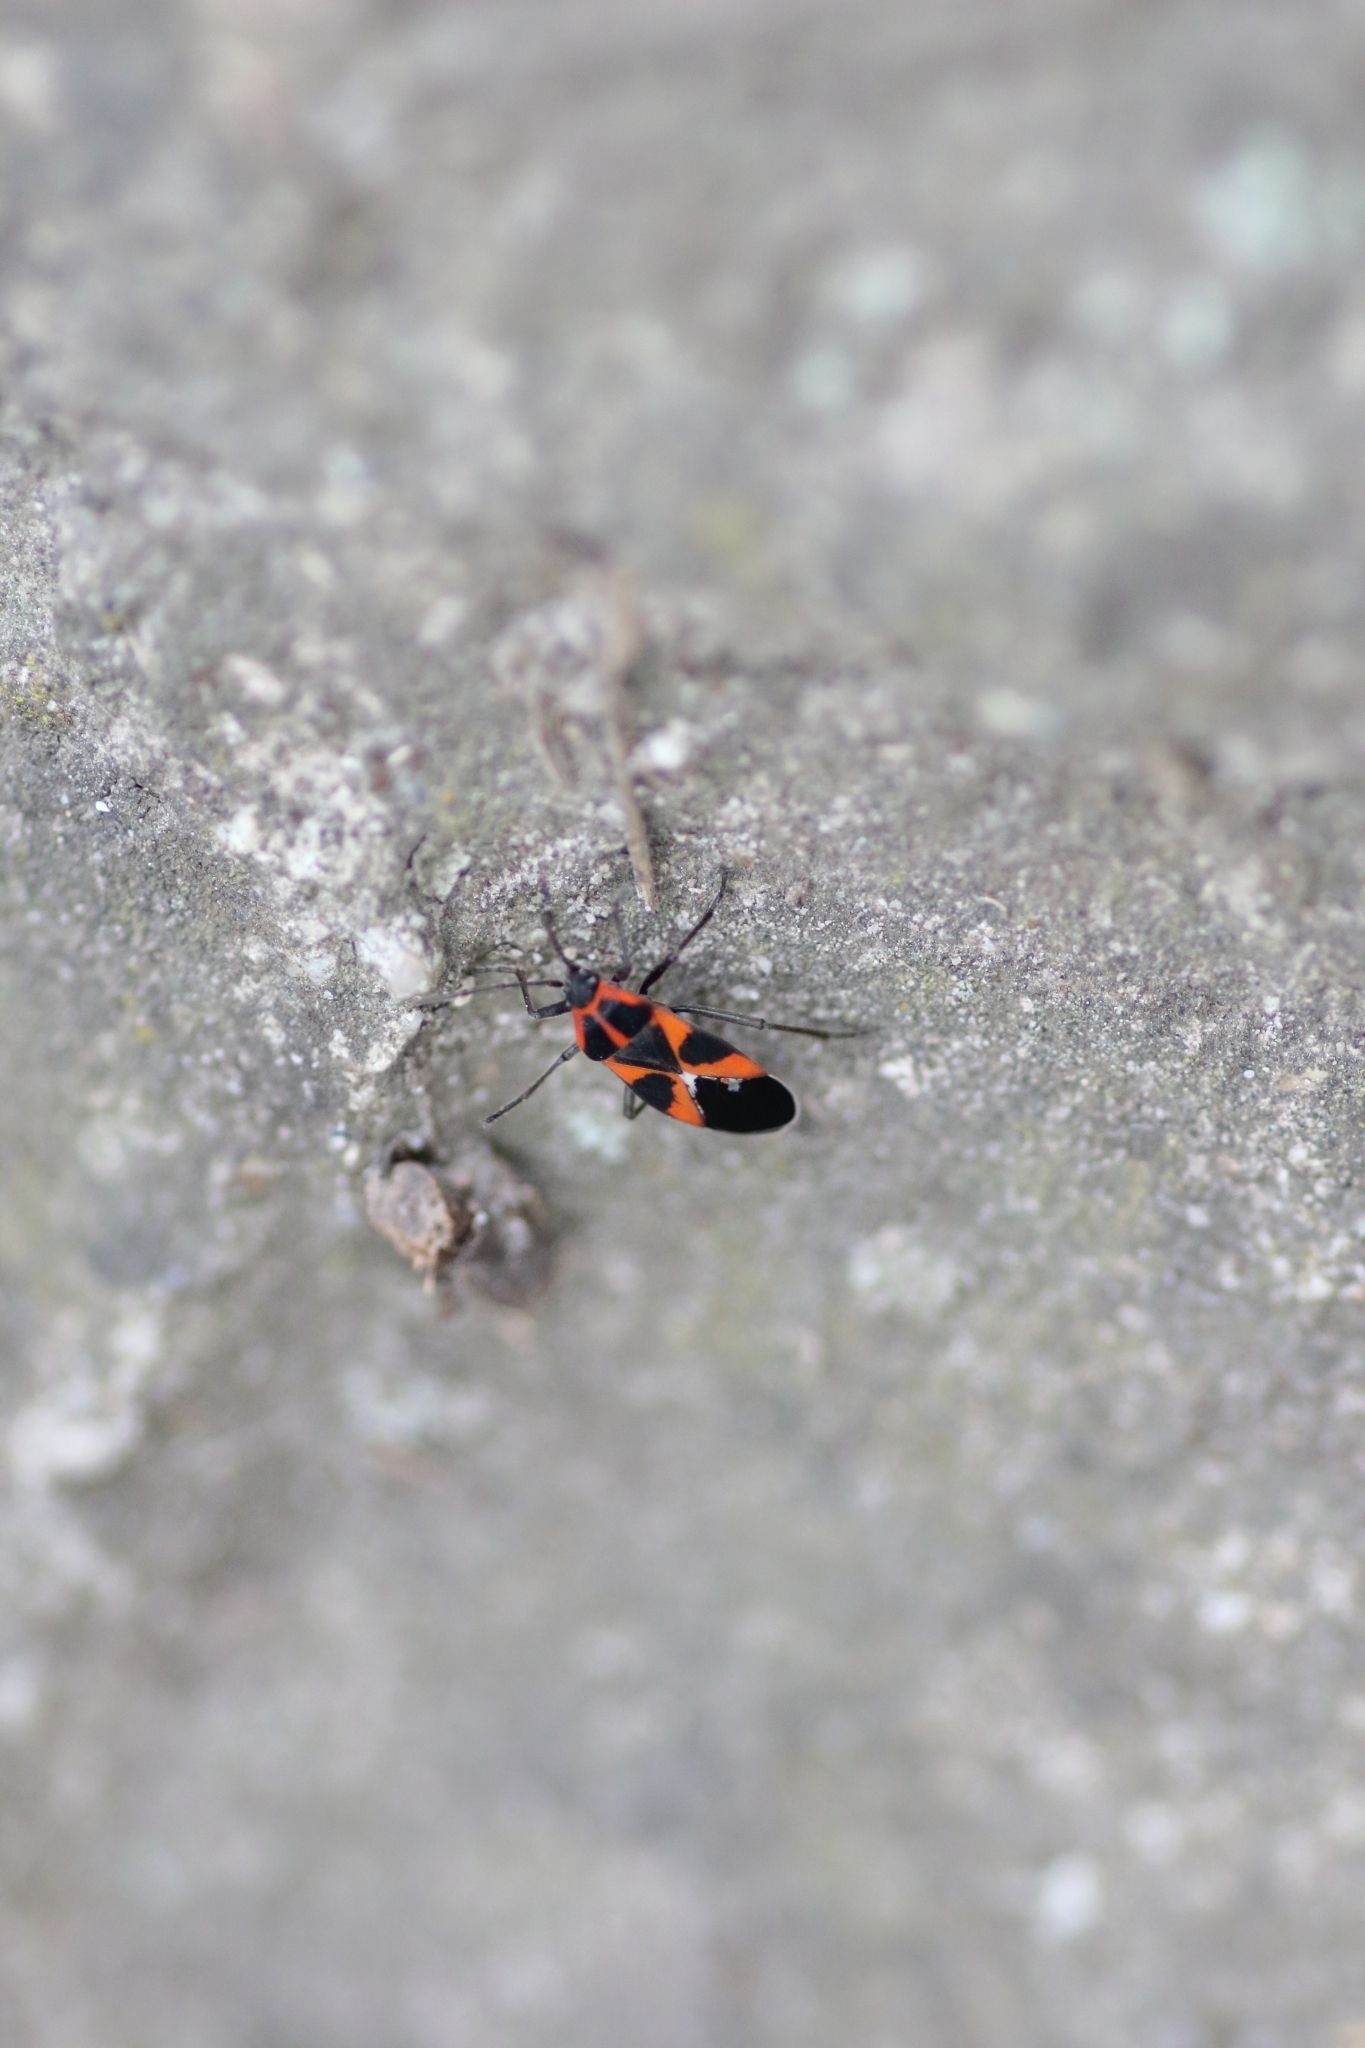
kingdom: Animalia
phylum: Arthropoda
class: Insecta
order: Hemiptera
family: Lygaeidae
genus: Tropidothorax
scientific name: Tropidothorax leucopterus
